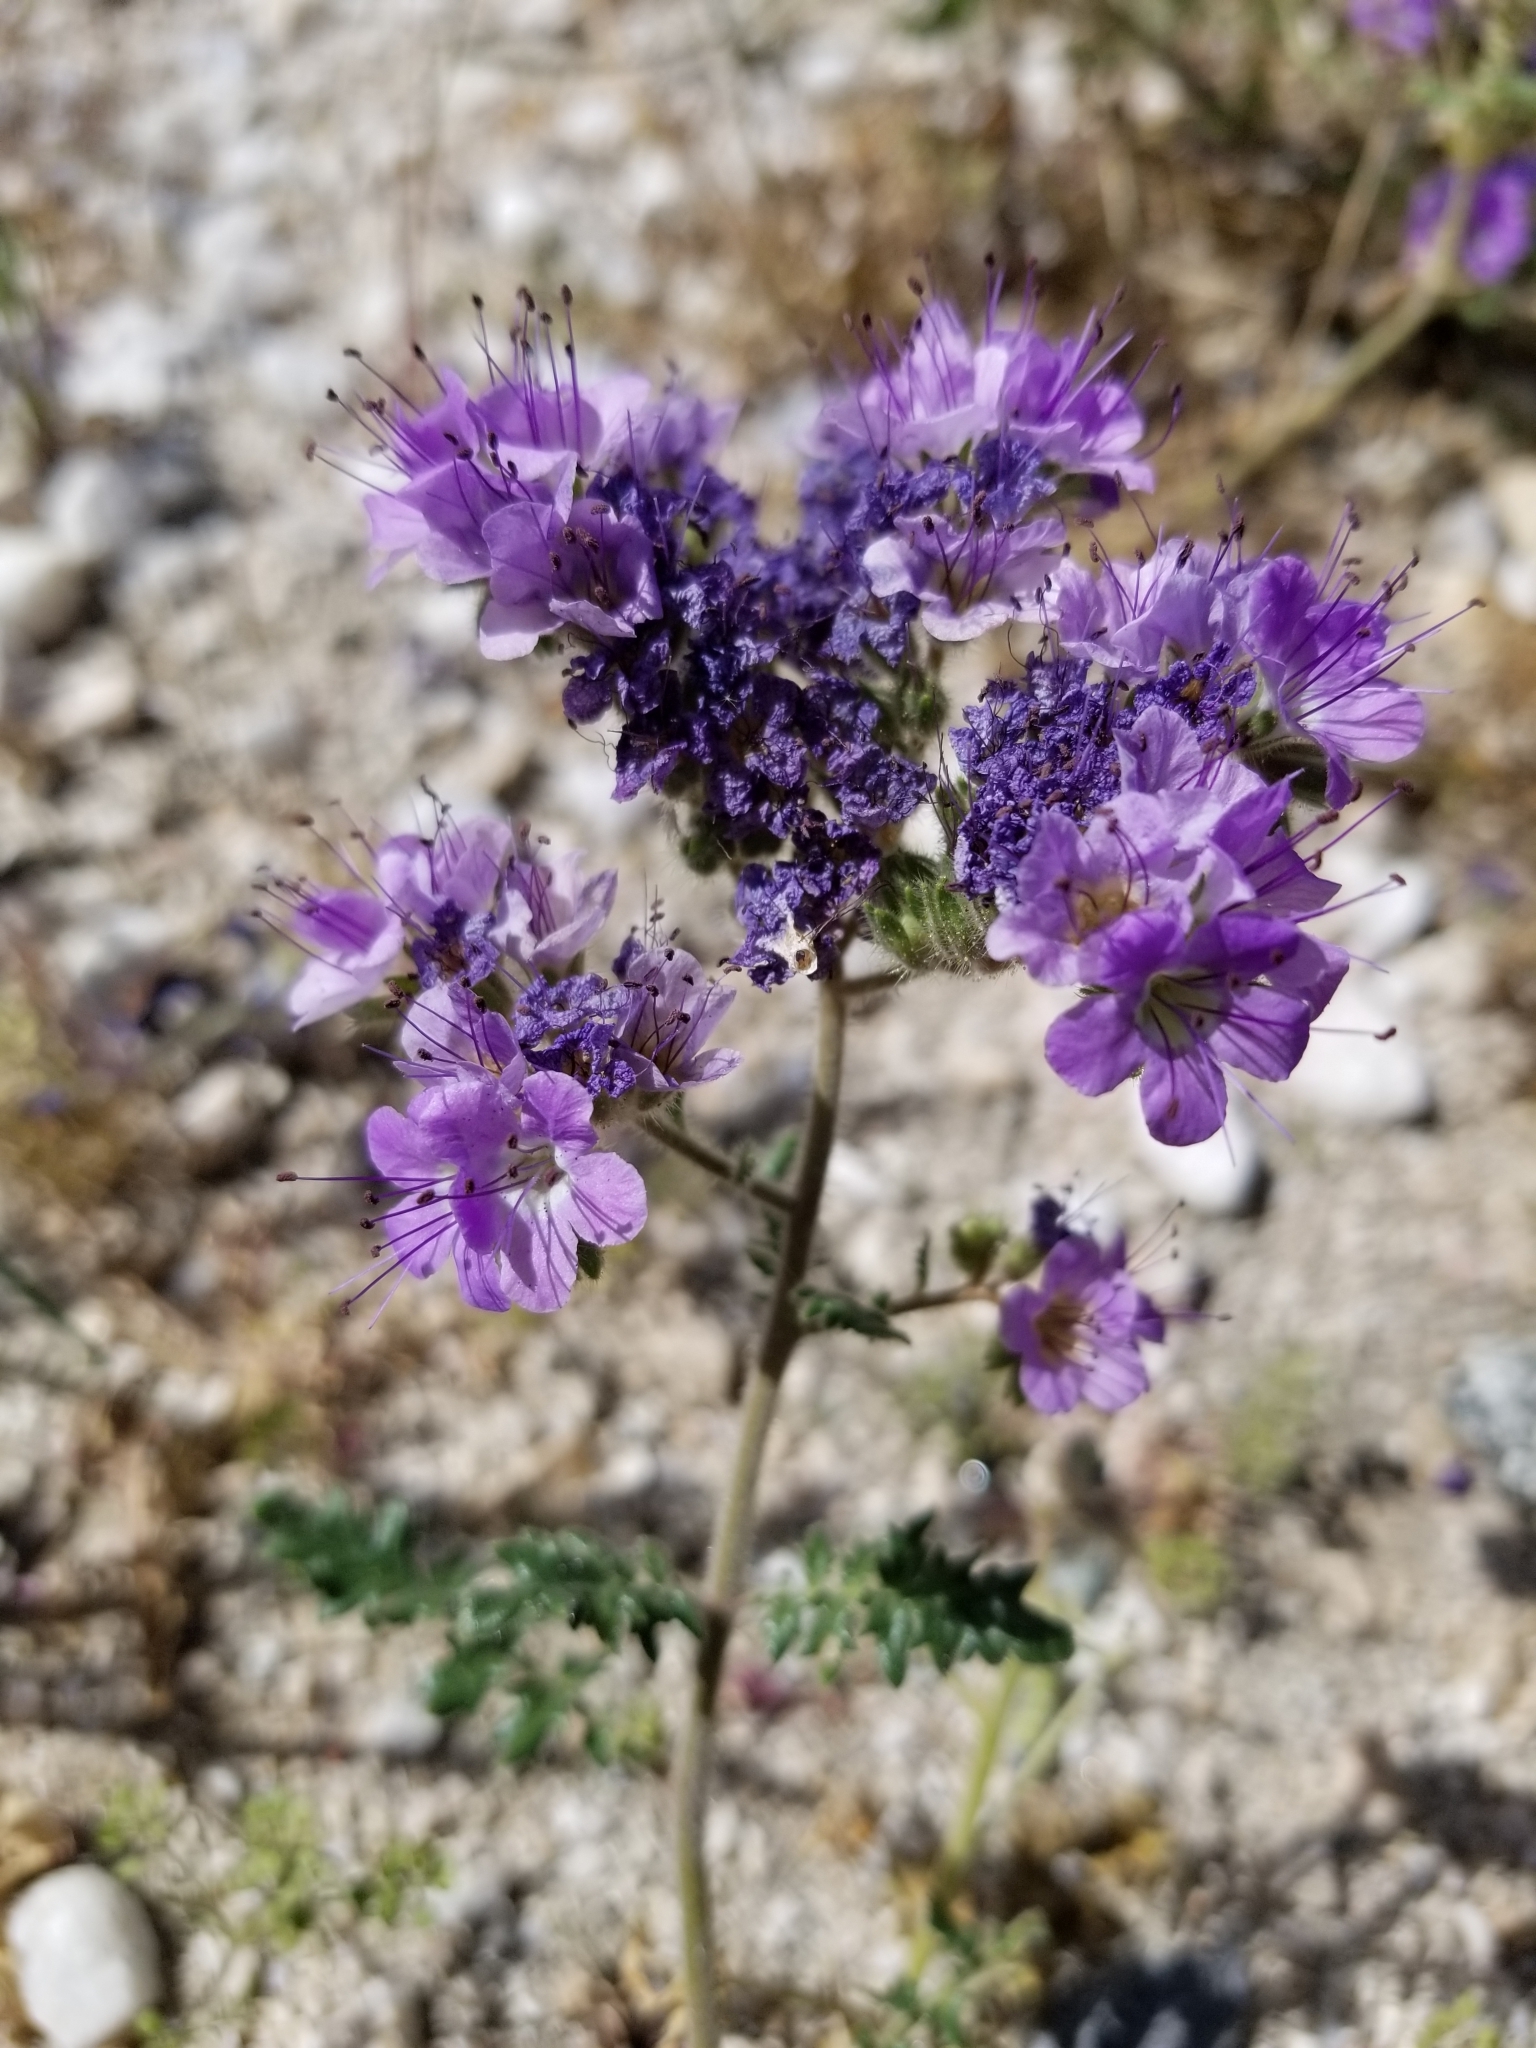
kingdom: Plantae
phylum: Tracheophyta
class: Magnoliopsida
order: Boraginales
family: Hydrophyllaceae
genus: Phacelia
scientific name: Phacelia crenulata
